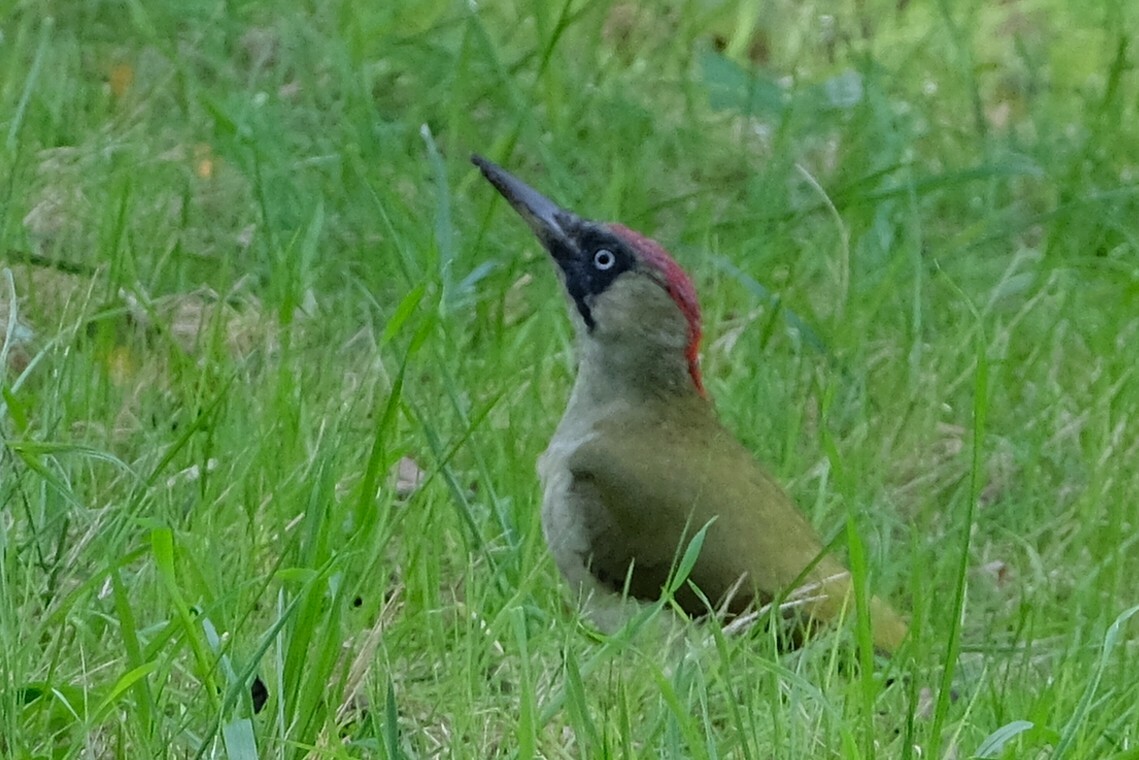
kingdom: Animalia
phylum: Chordata
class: Aves
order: Piciformes
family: Picidae
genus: Picus
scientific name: Picus viridis
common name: European green woodpecker
